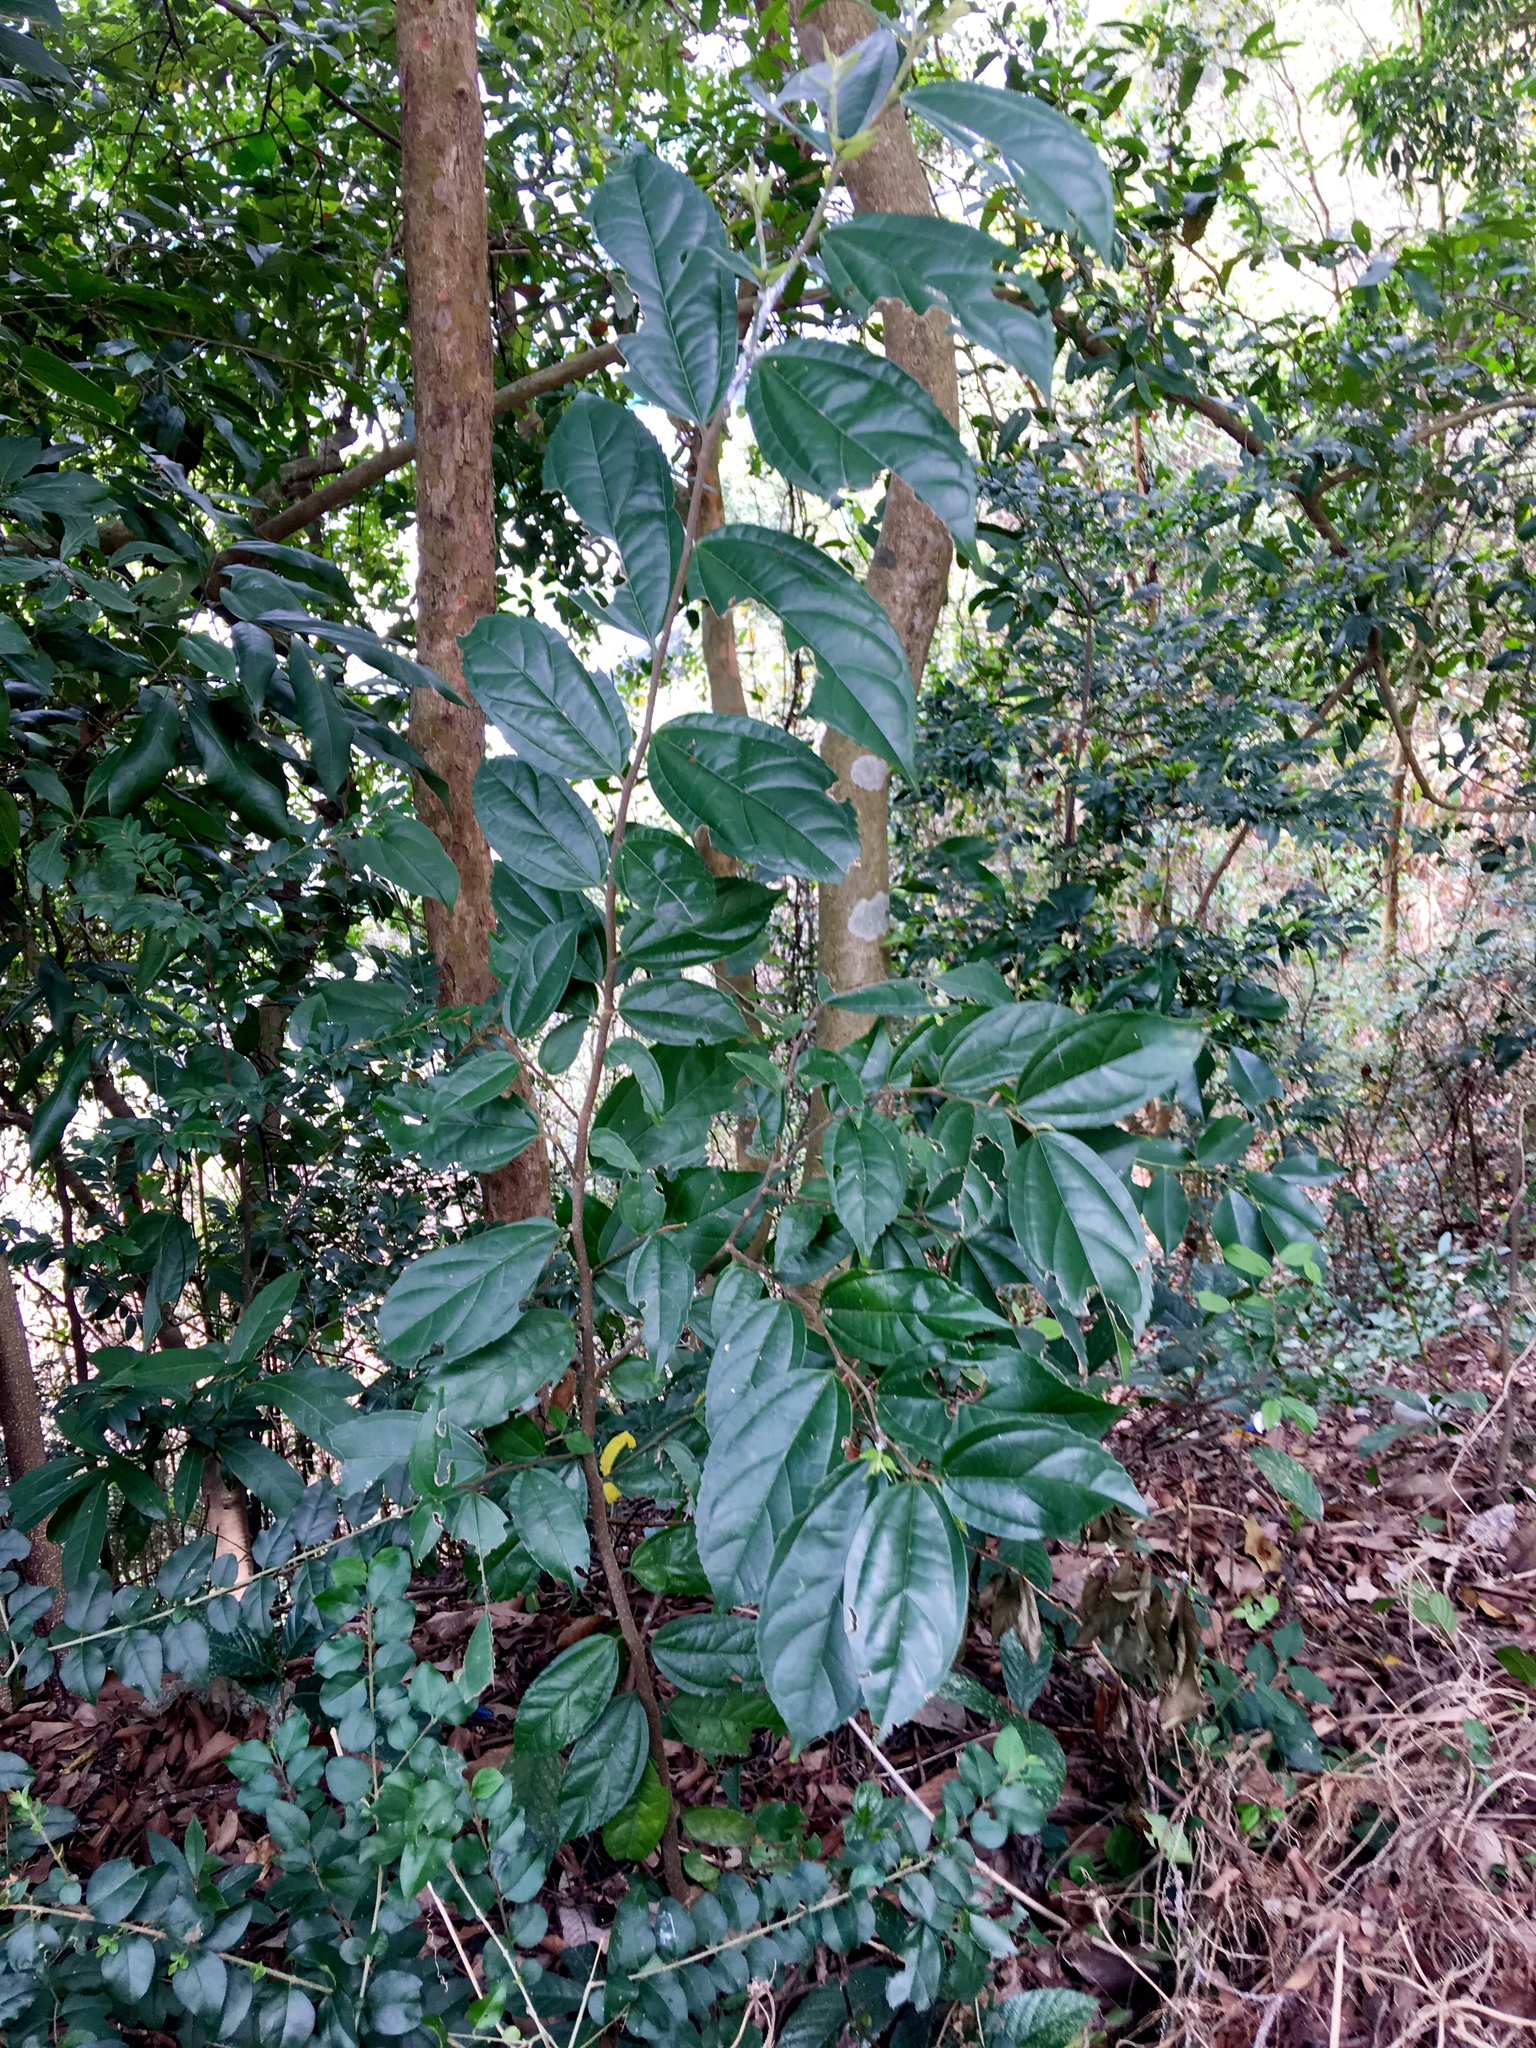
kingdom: Plantae
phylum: Tracheophyta
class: Magnoliopsida
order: Rosales
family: Cannabaceae
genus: Celtis
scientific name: Celtis timorensis
